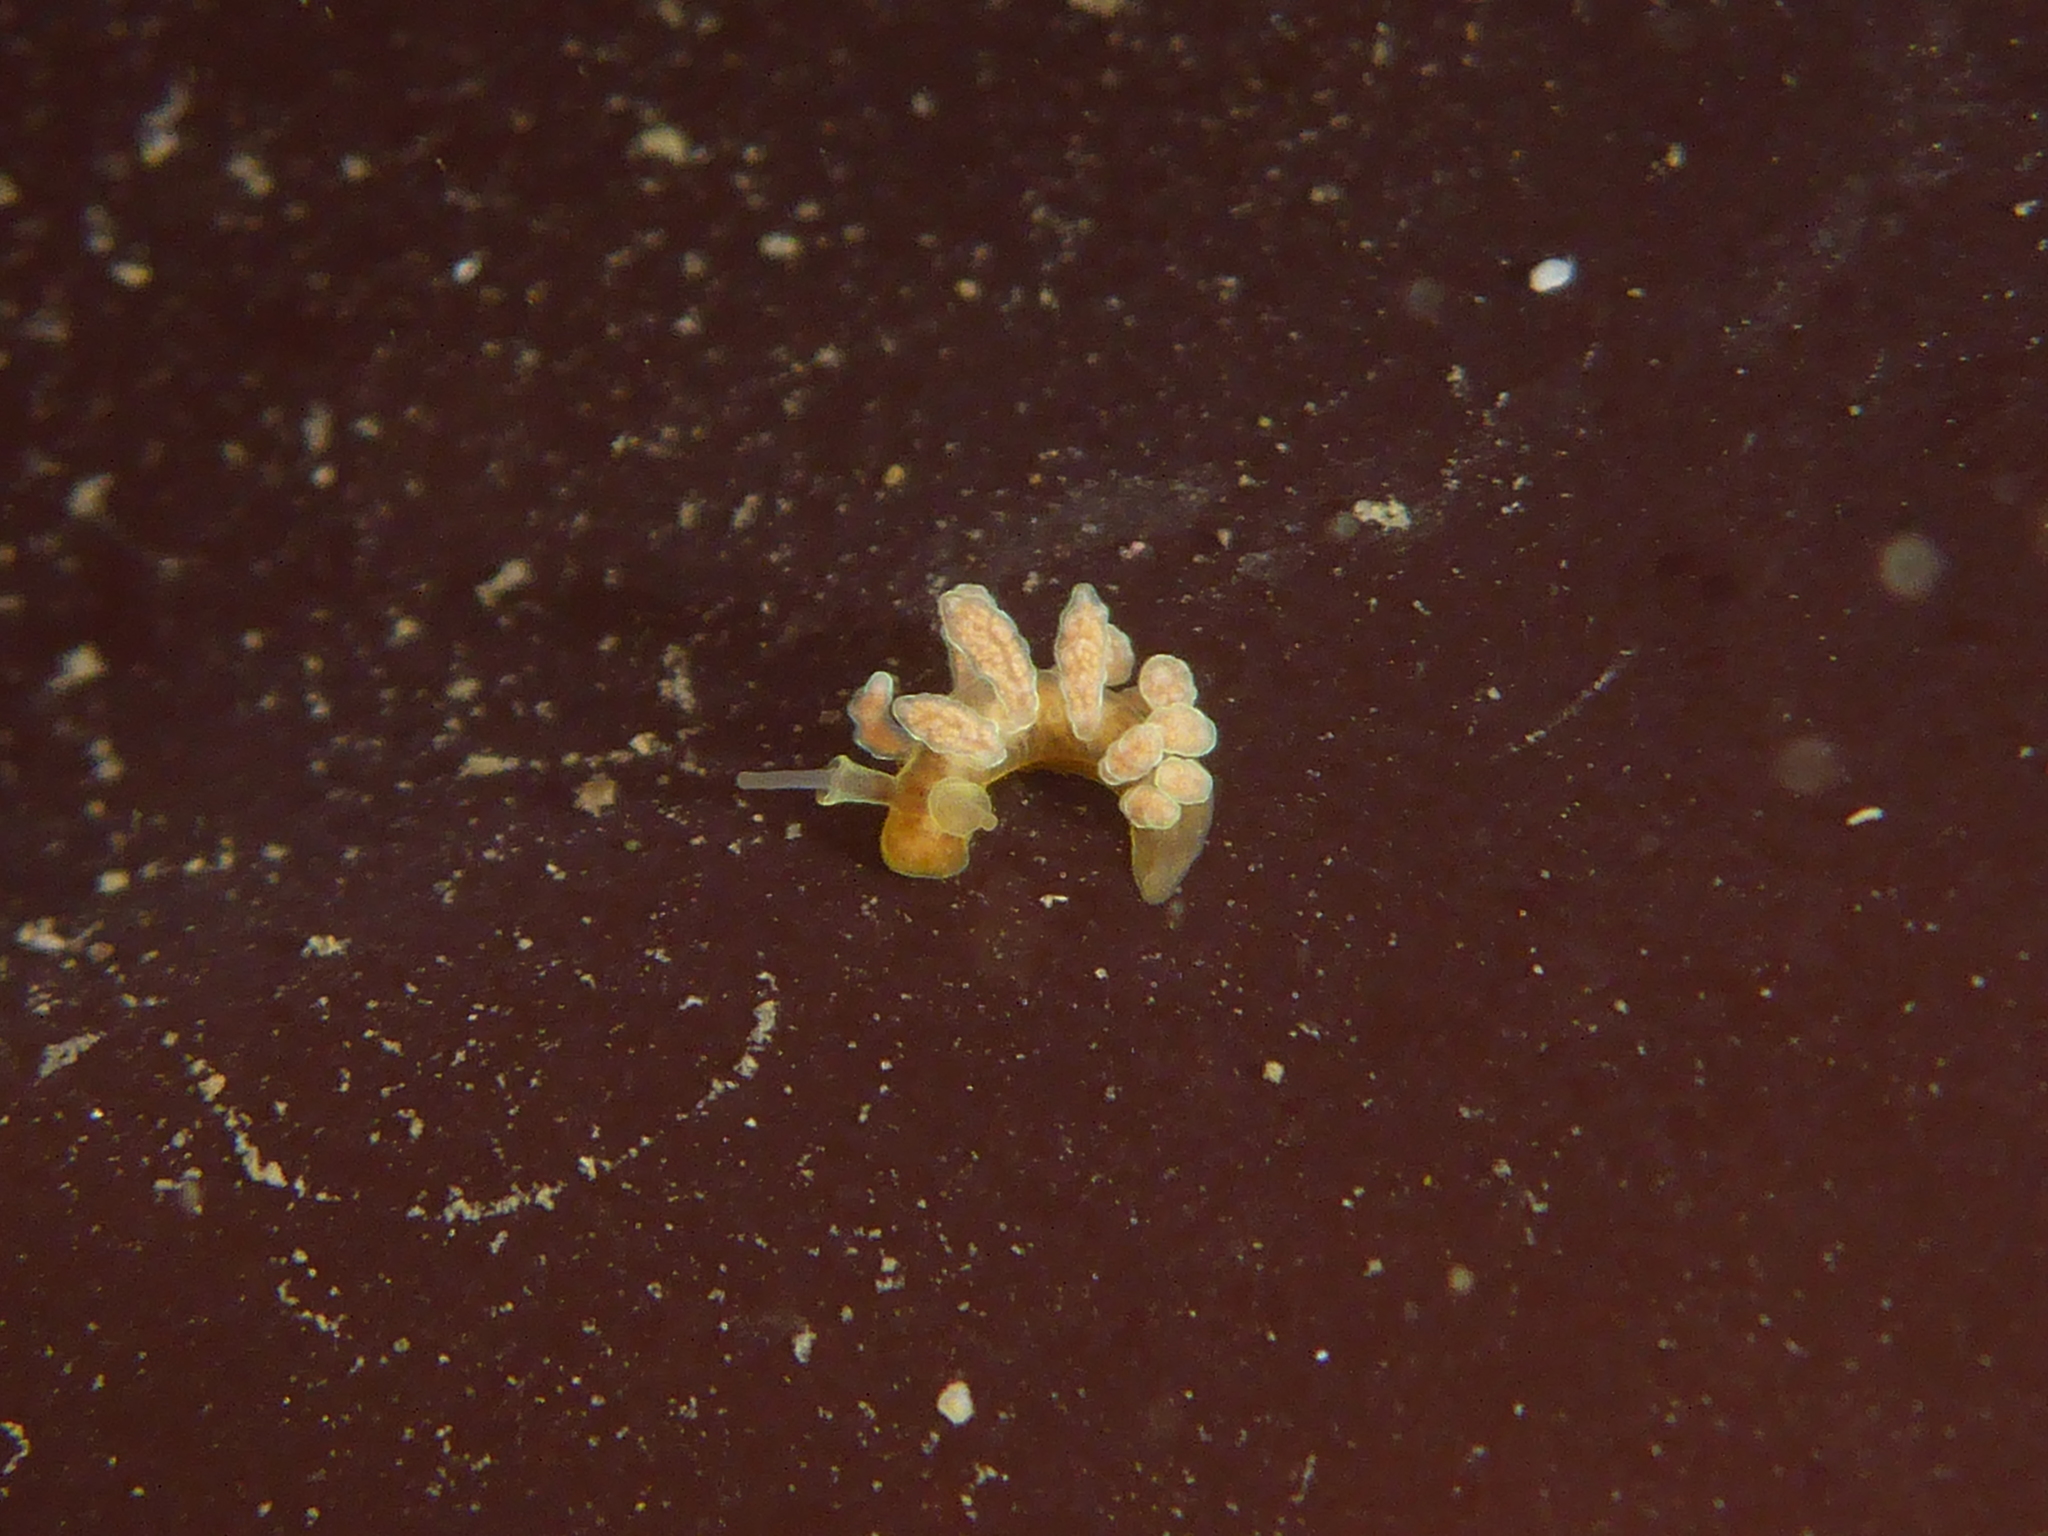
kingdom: Animalia
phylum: Mollusca
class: Gastropoda
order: Nudibranchia
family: Dotidae
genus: Doto
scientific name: Doto columbiana
